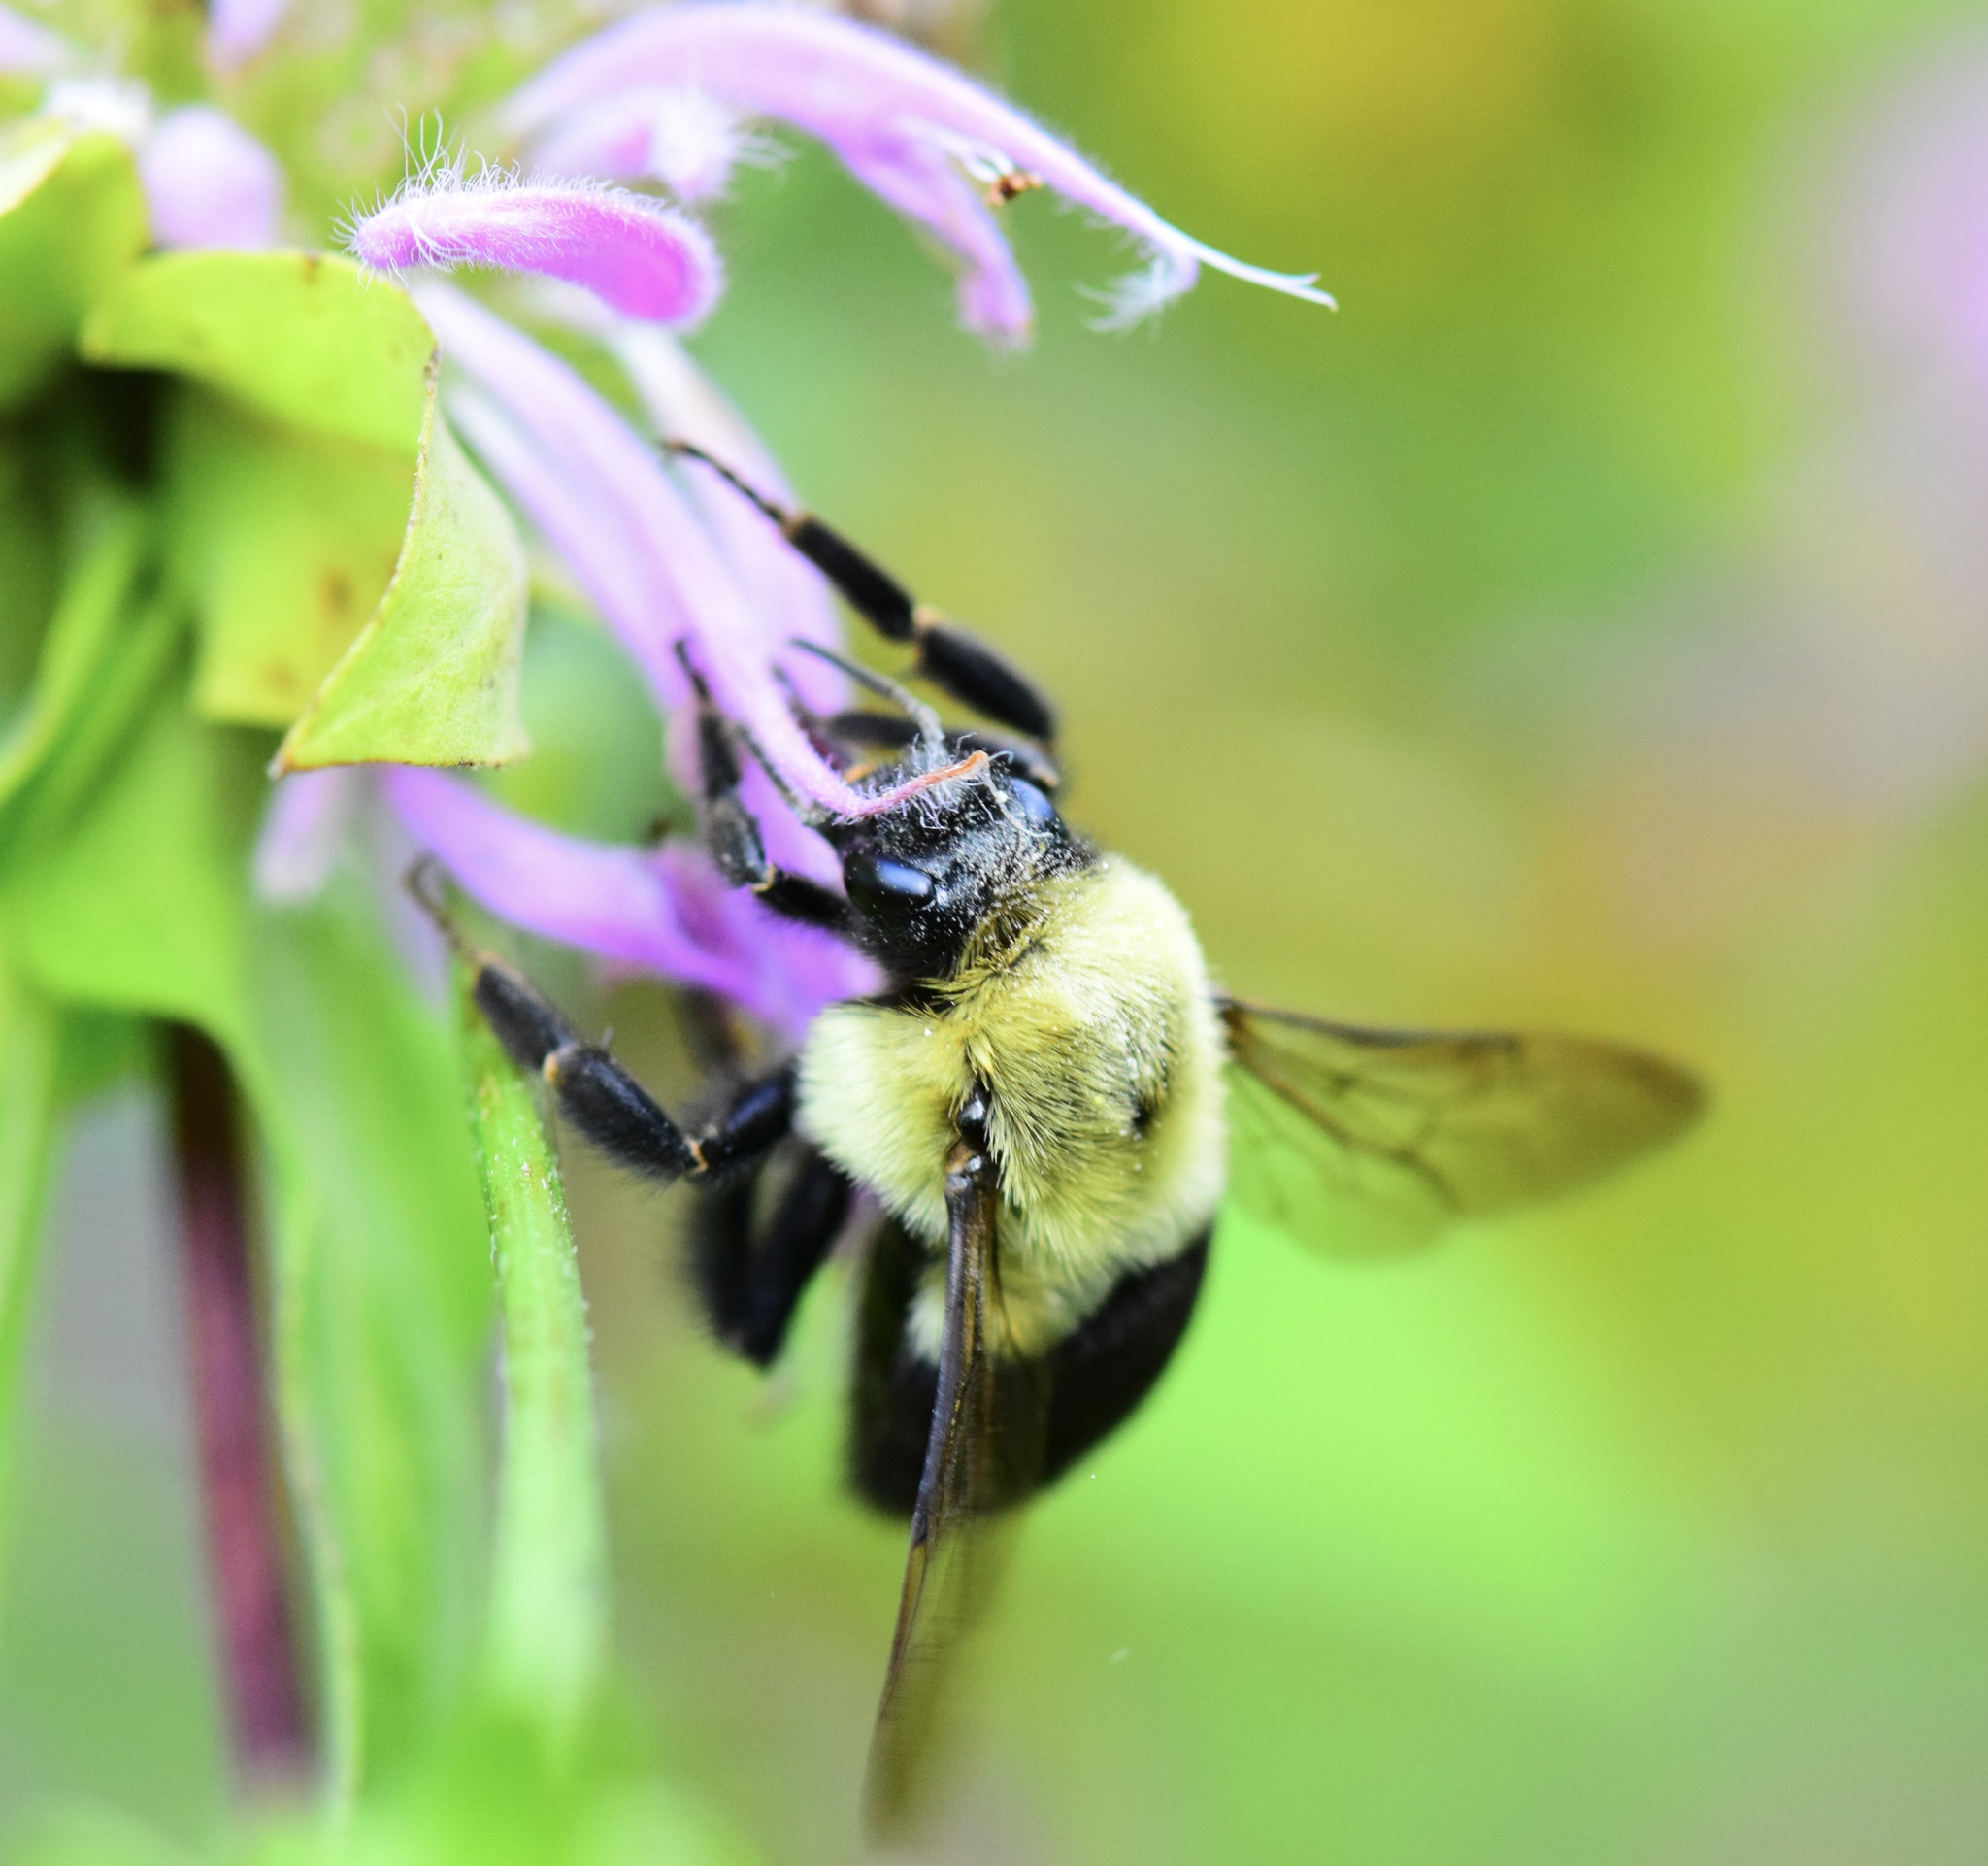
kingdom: Animalia
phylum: Arthropoda
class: Insecta
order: Hymenoptera
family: Apidae
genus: Bombus
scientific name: Bombus impatiens
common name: Common eastern bumble bee
